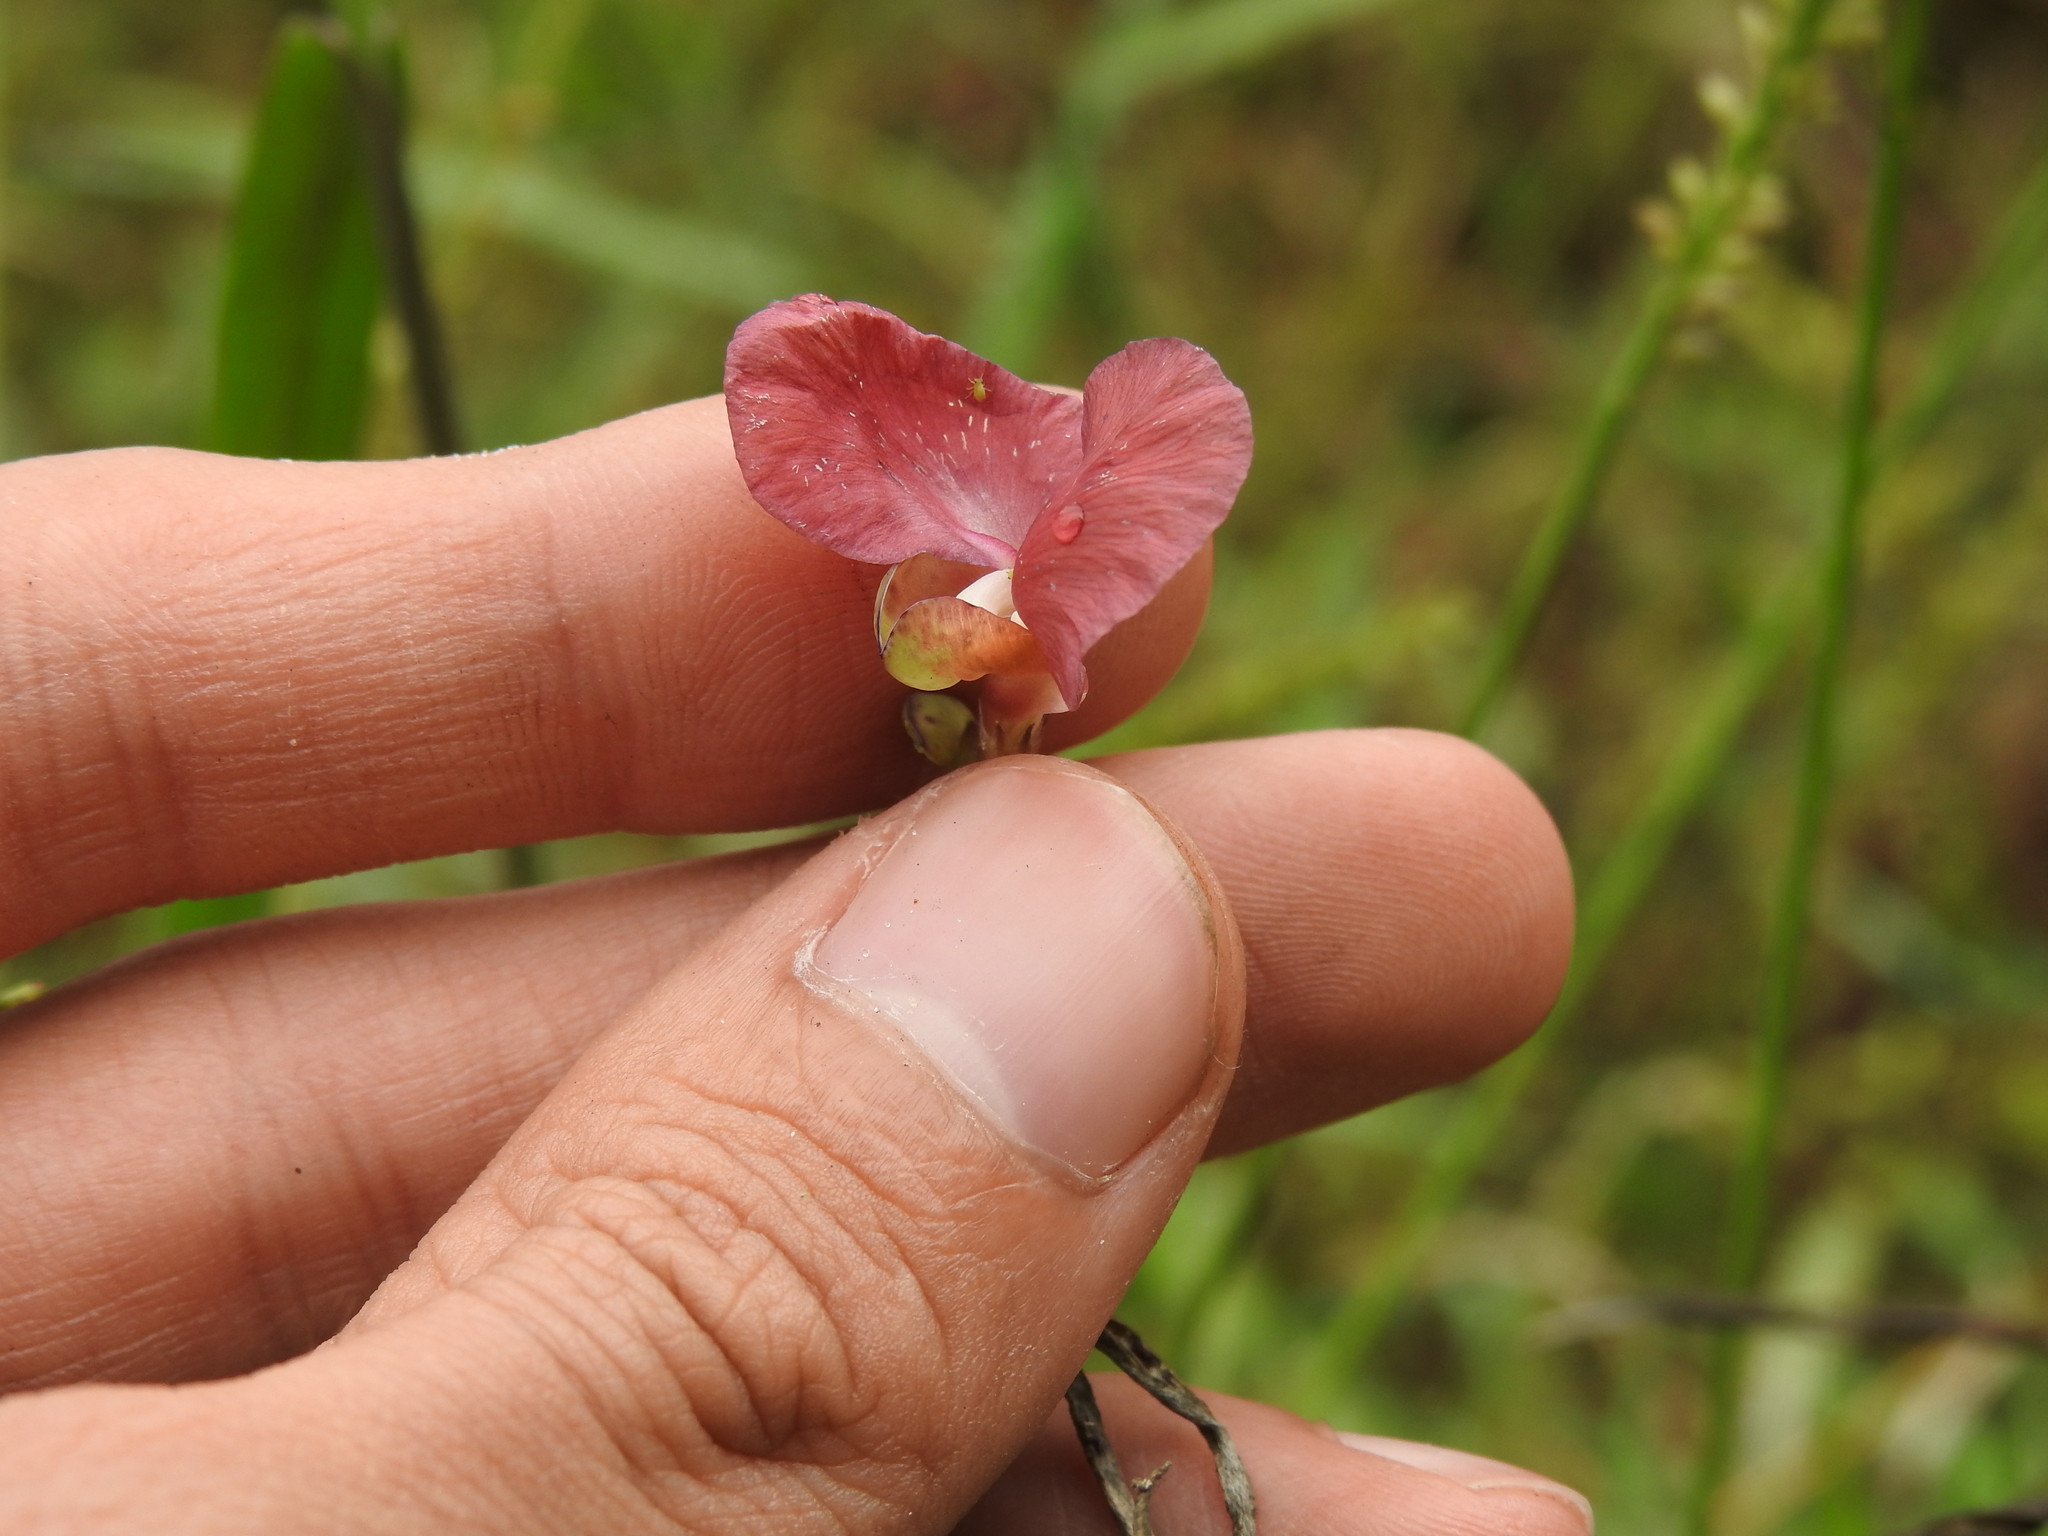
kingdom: Plantae
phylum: Tracheophyta
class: Magnoliopsida
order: Fabales
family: Fabaceae
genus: Macroptilium
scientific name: Macroptilium lathyroides
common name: Wild bushbean
